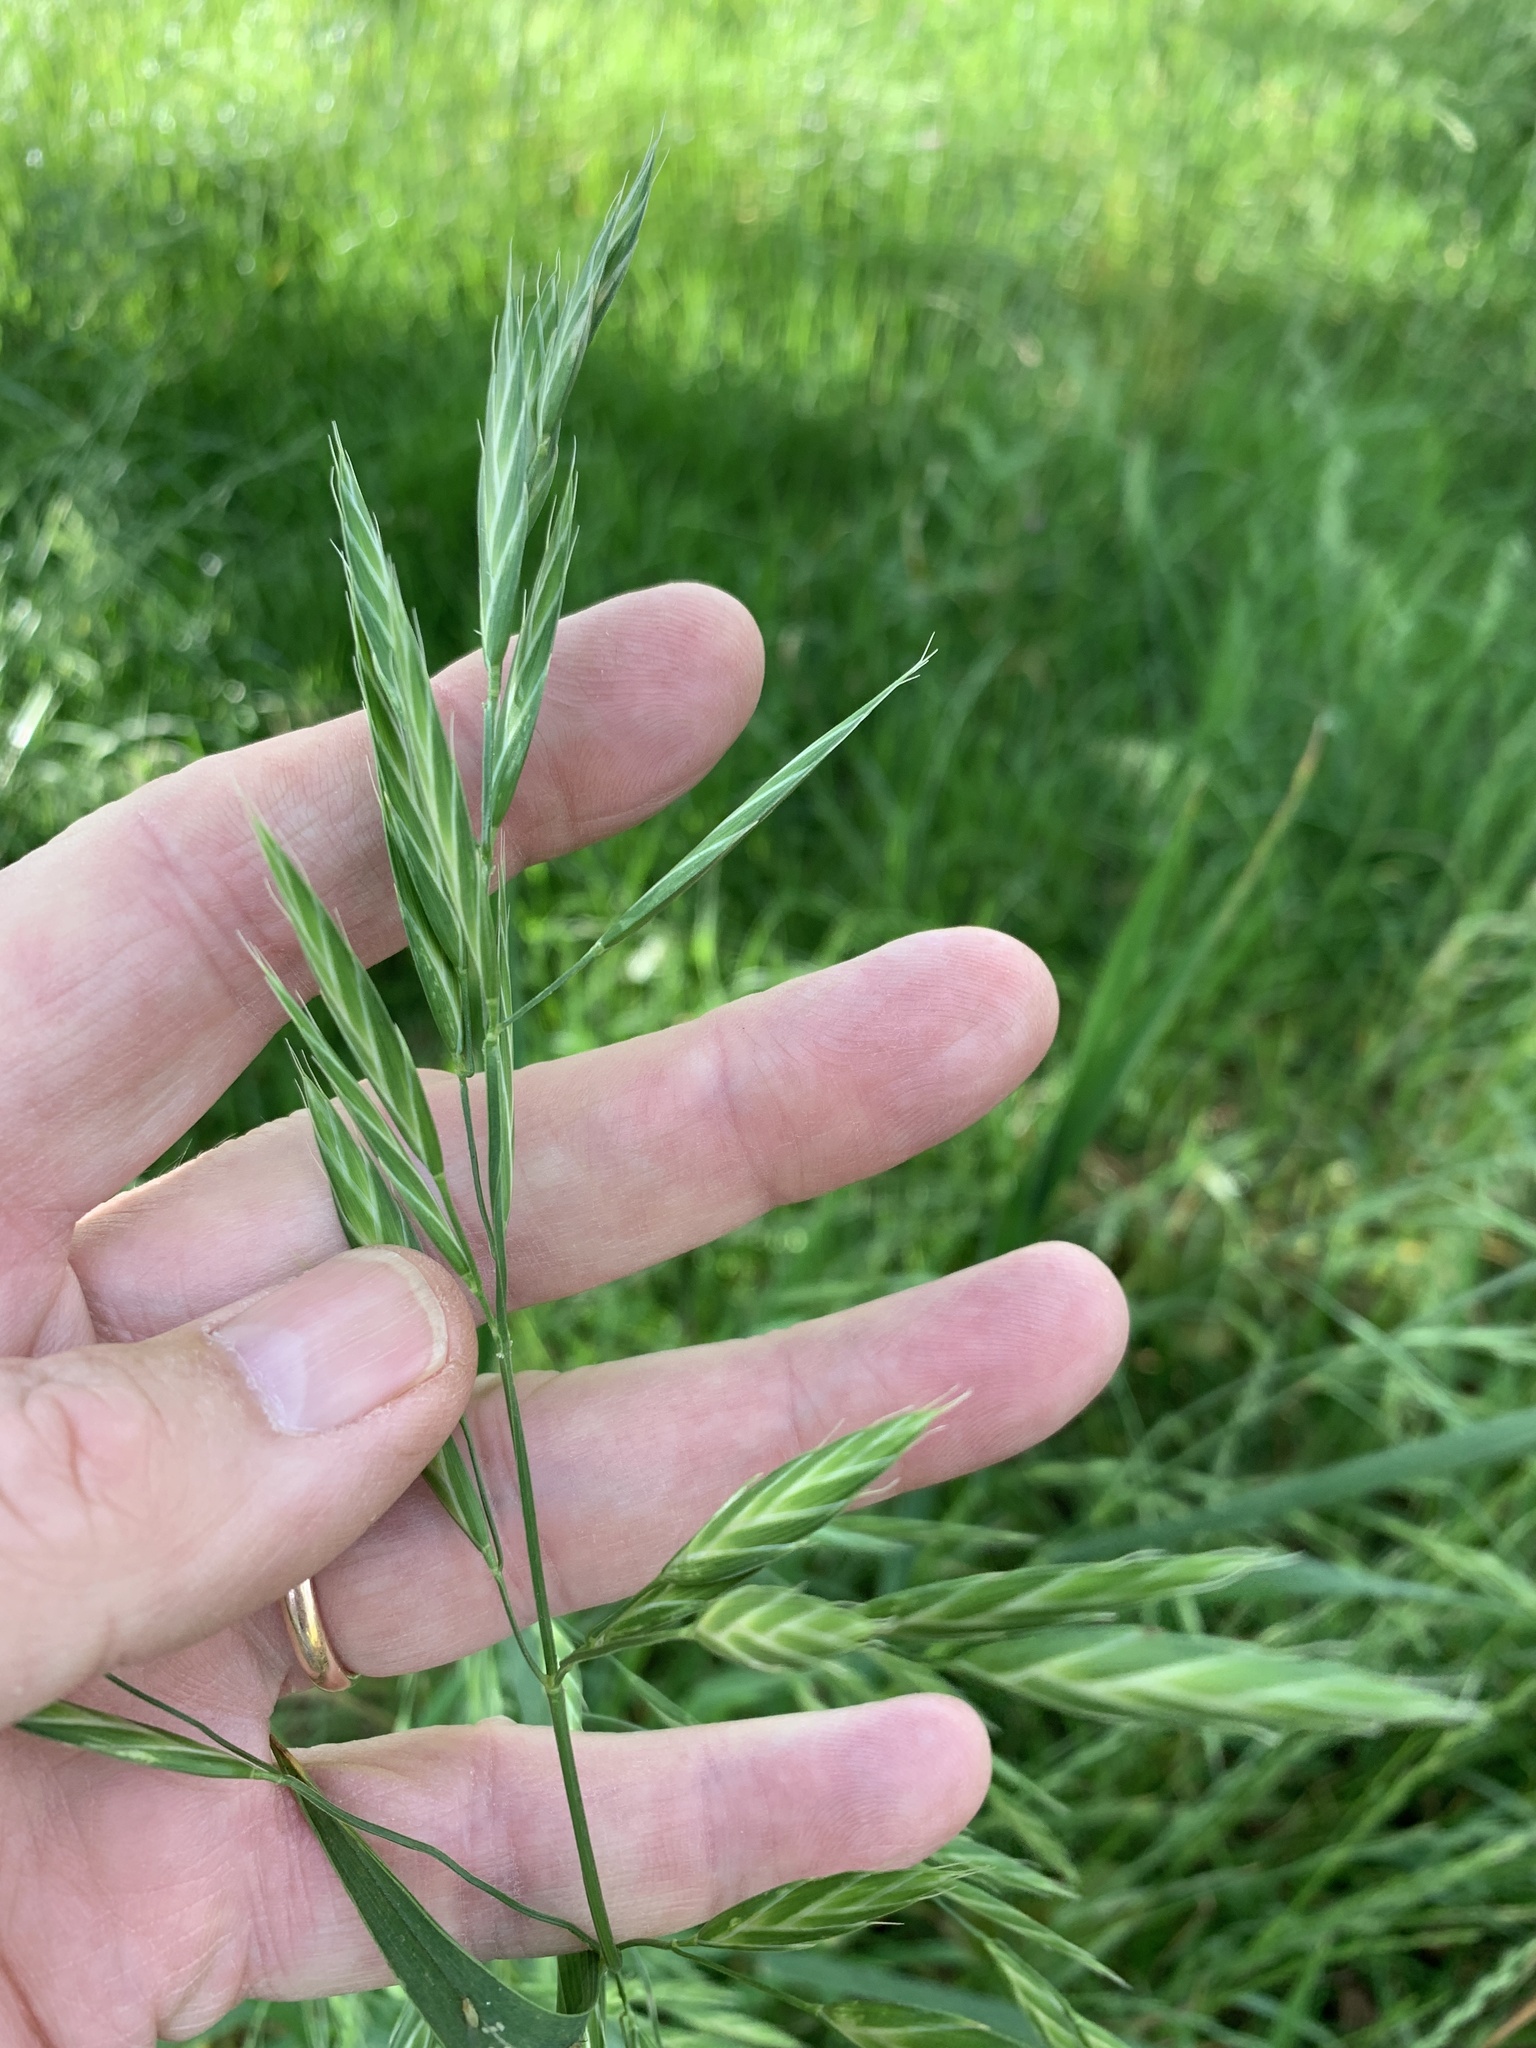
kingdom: Plantae
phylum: Tracheophyta
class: Liliopsida
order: Poales
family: Poaceae
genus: Bromus
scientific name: Bromus catharticus
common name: Rescuegrass
